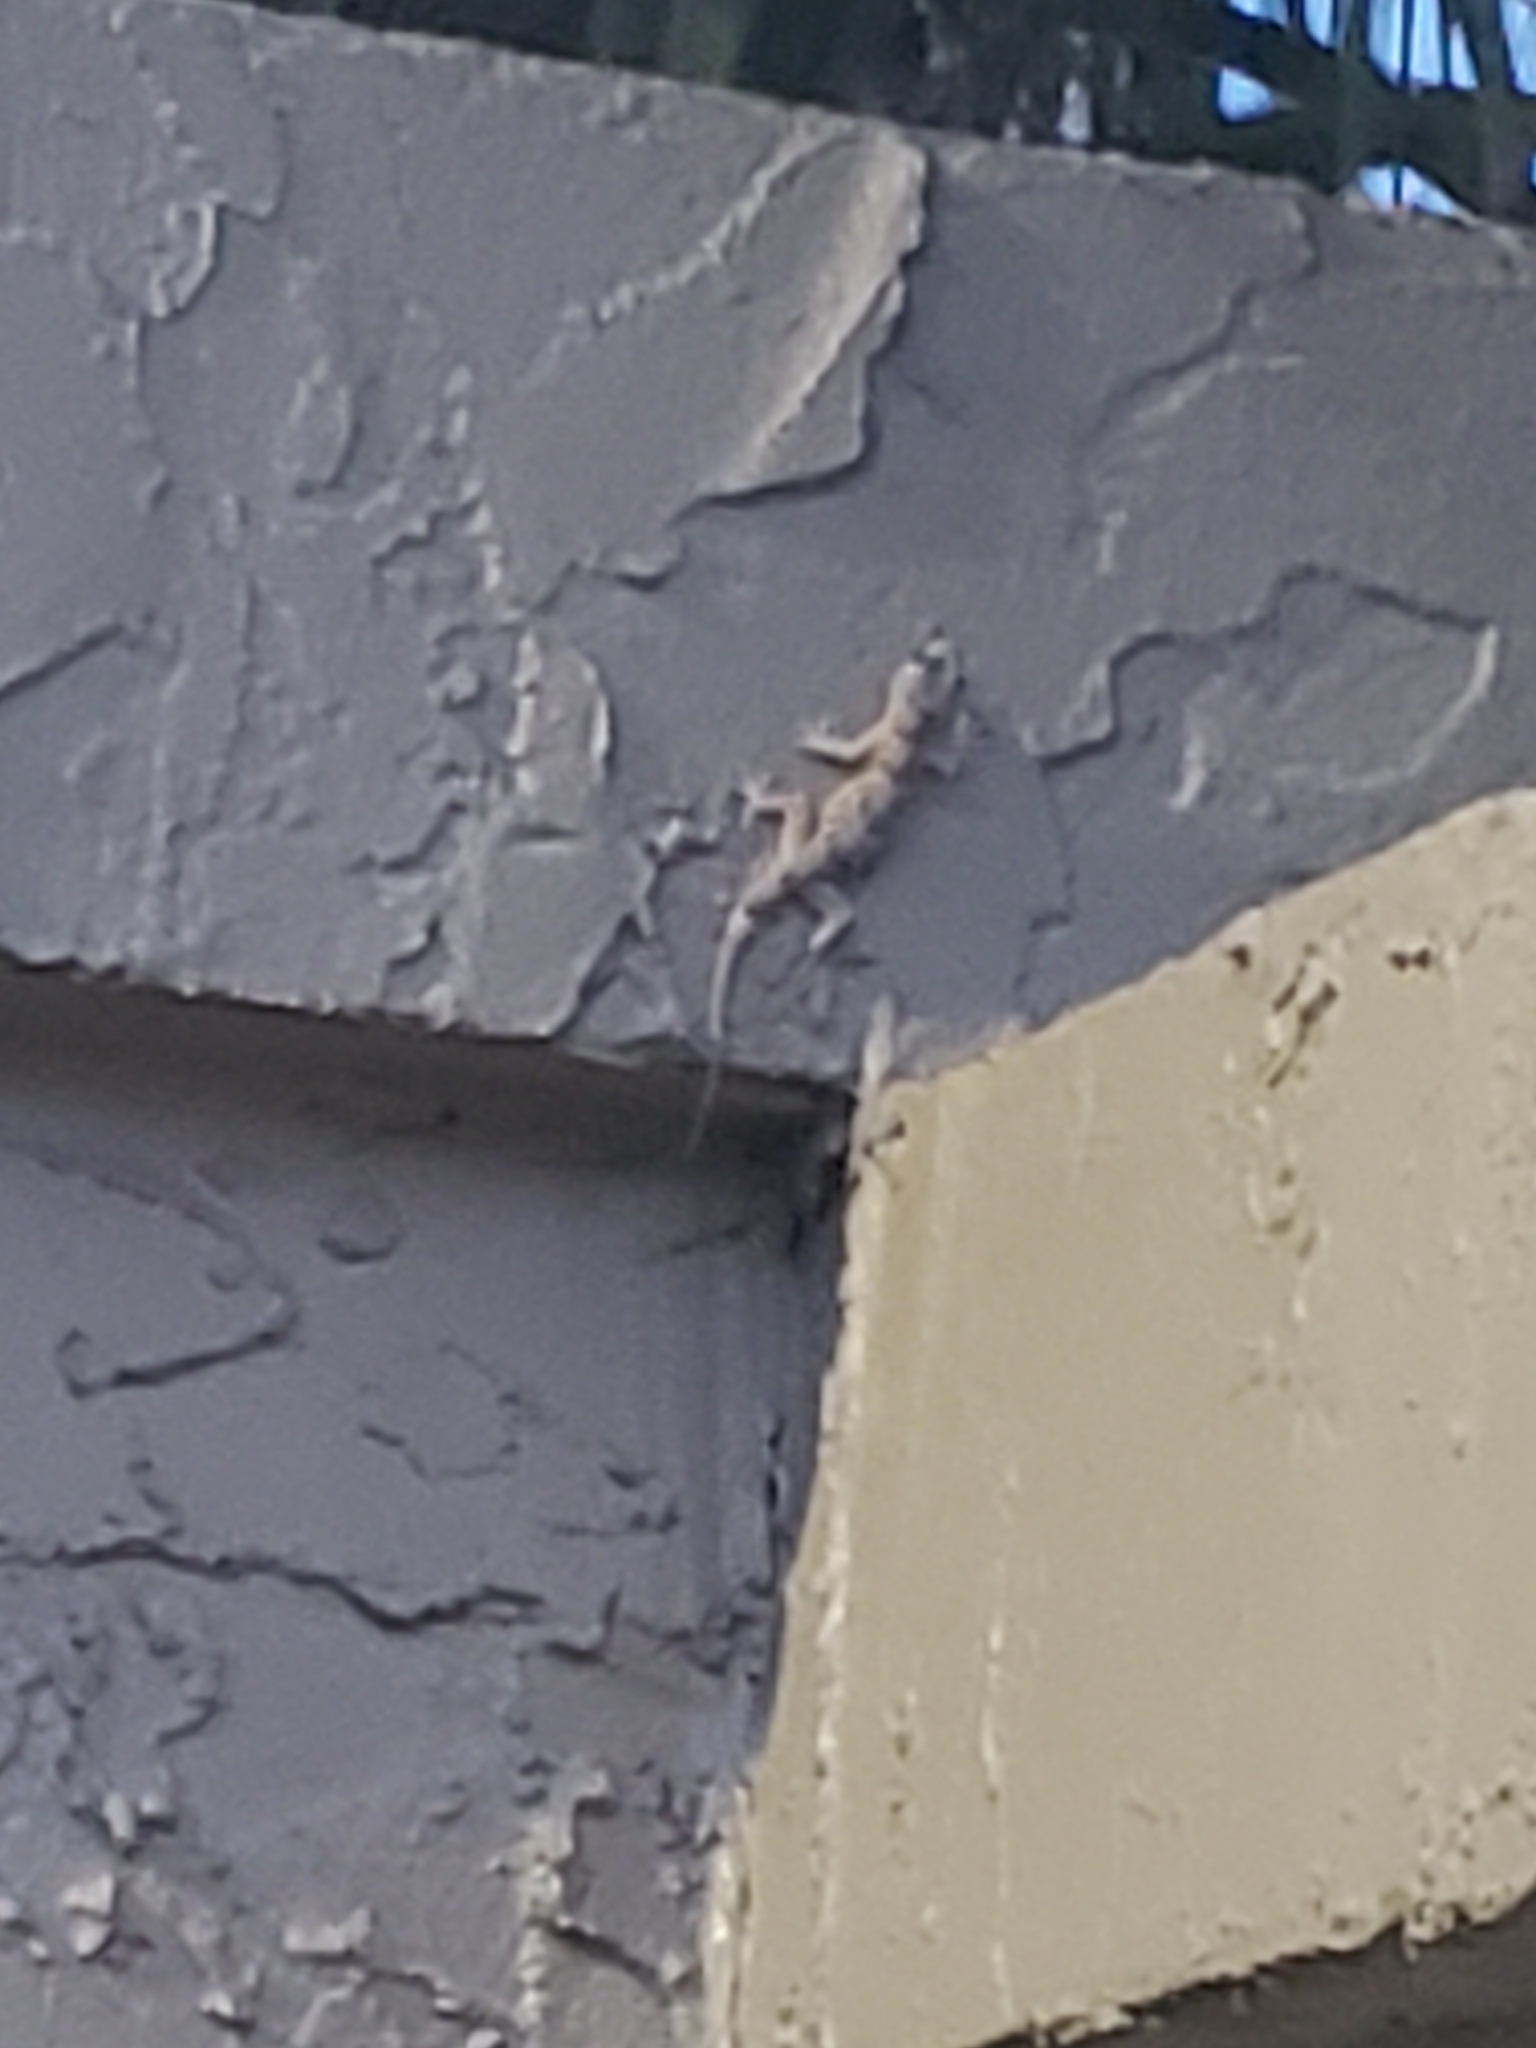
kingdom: Animalia
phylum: Chordata
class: Squamata
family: Gekkonidae
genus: Hemidactylus
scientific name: Hemidactylus mabouia
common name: House gecko
